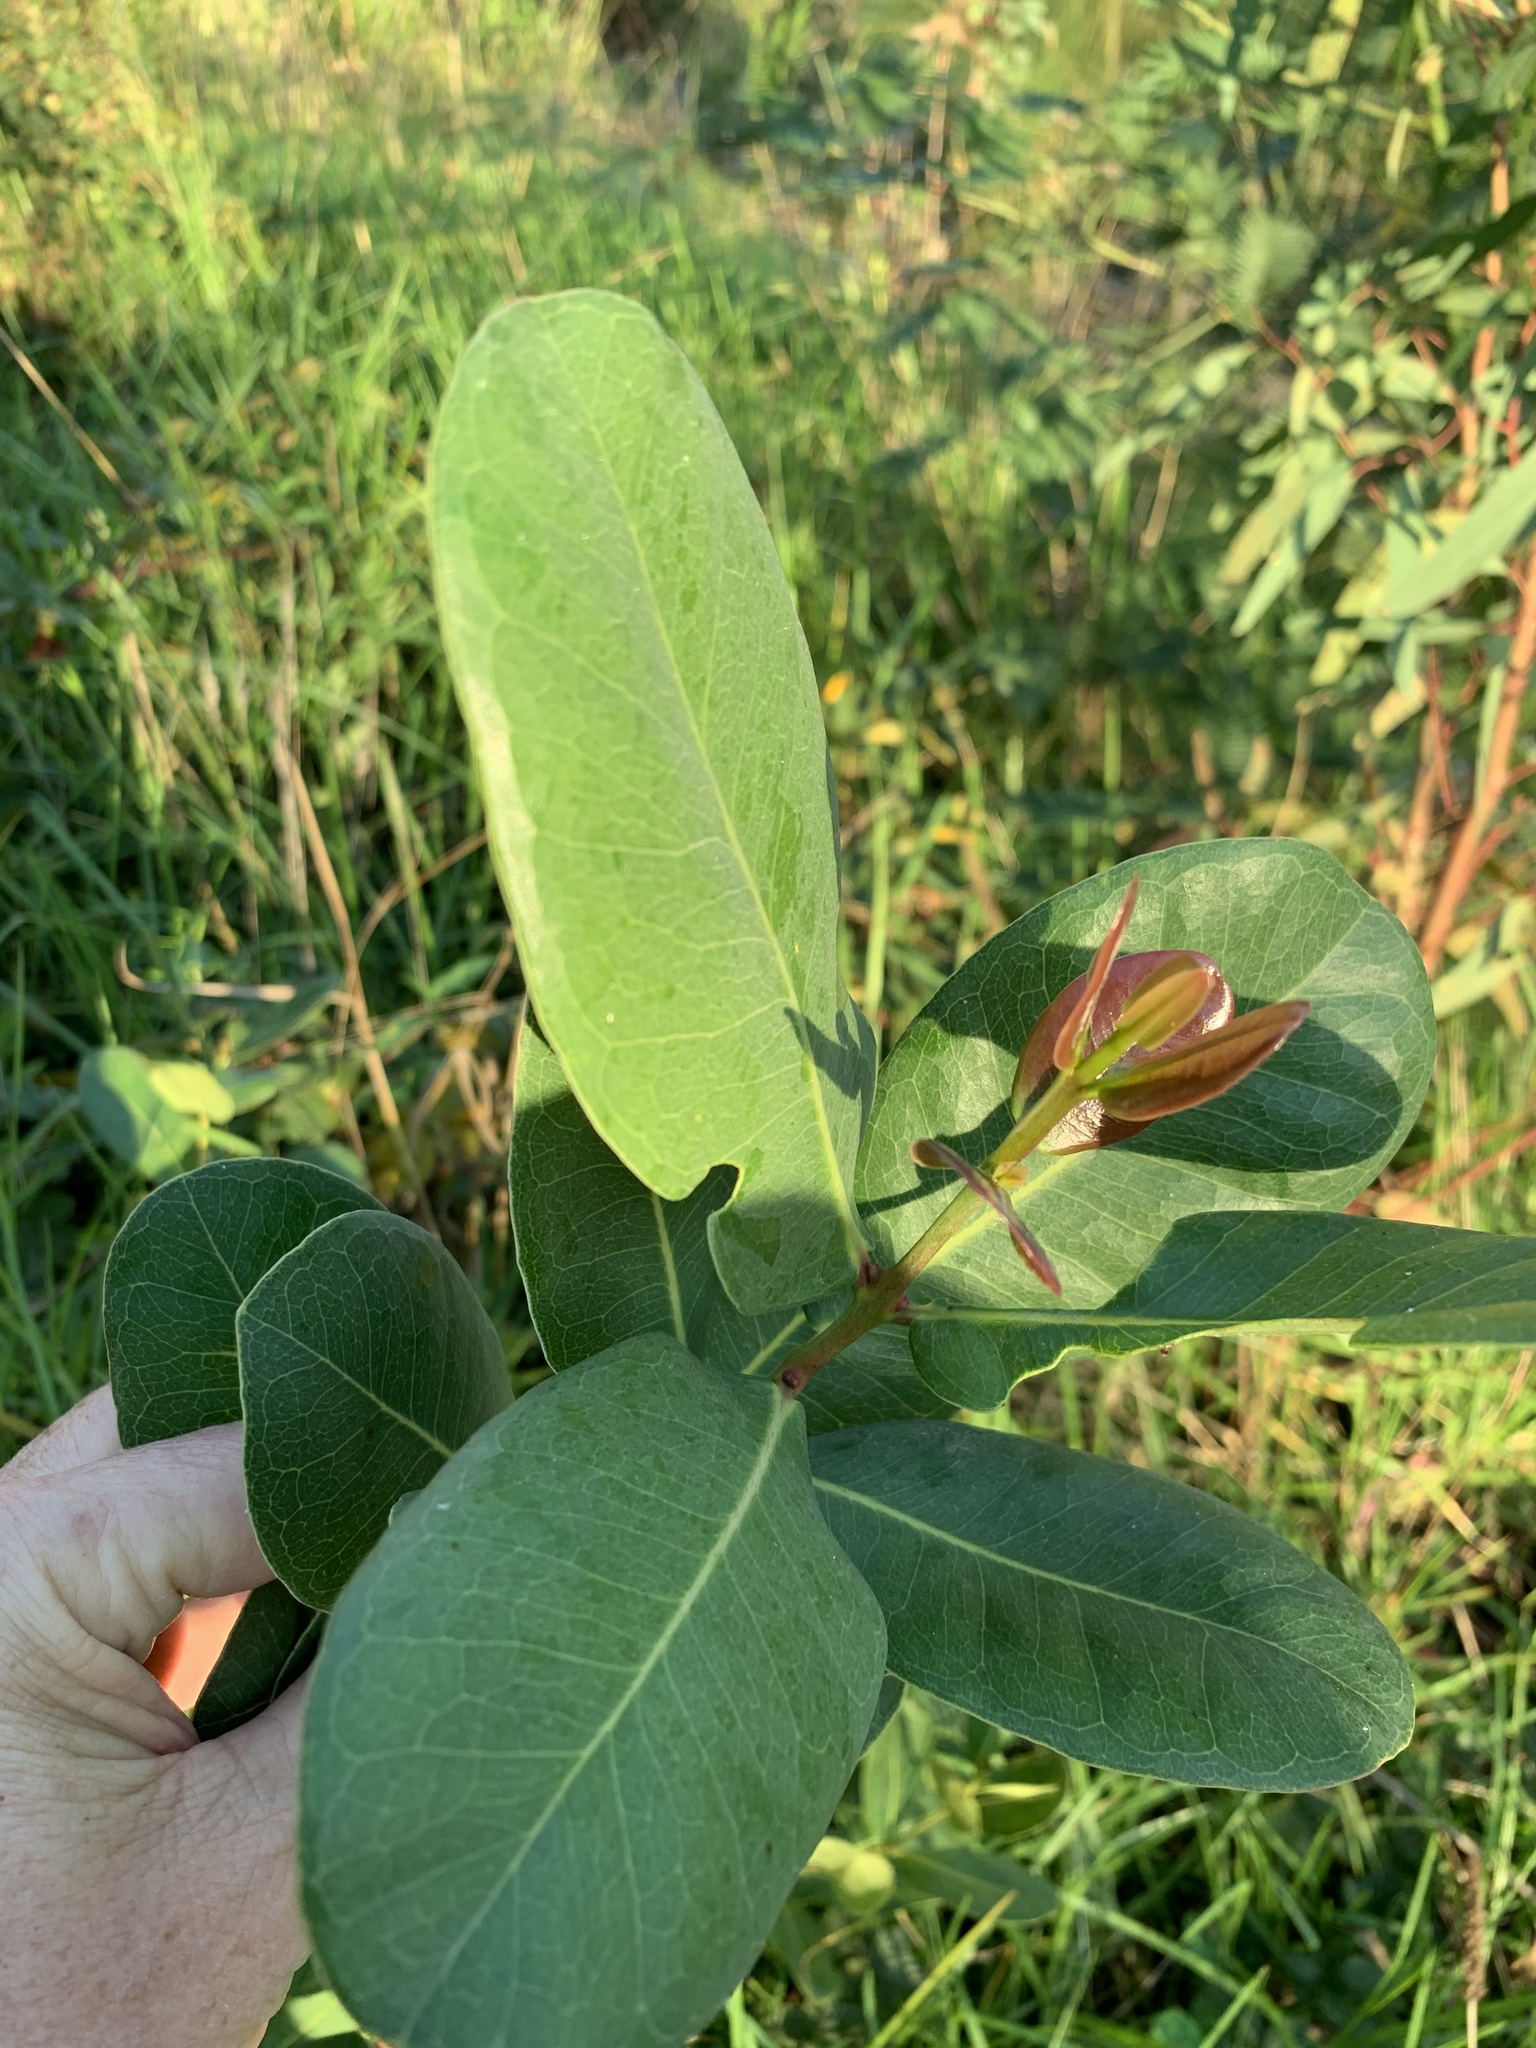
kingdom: Plantae
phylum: Tracheophyta
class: Magnoliopsida
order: Myrtales
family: Myrtaceae
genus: Syzygium
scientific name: Syzygium cordatum
